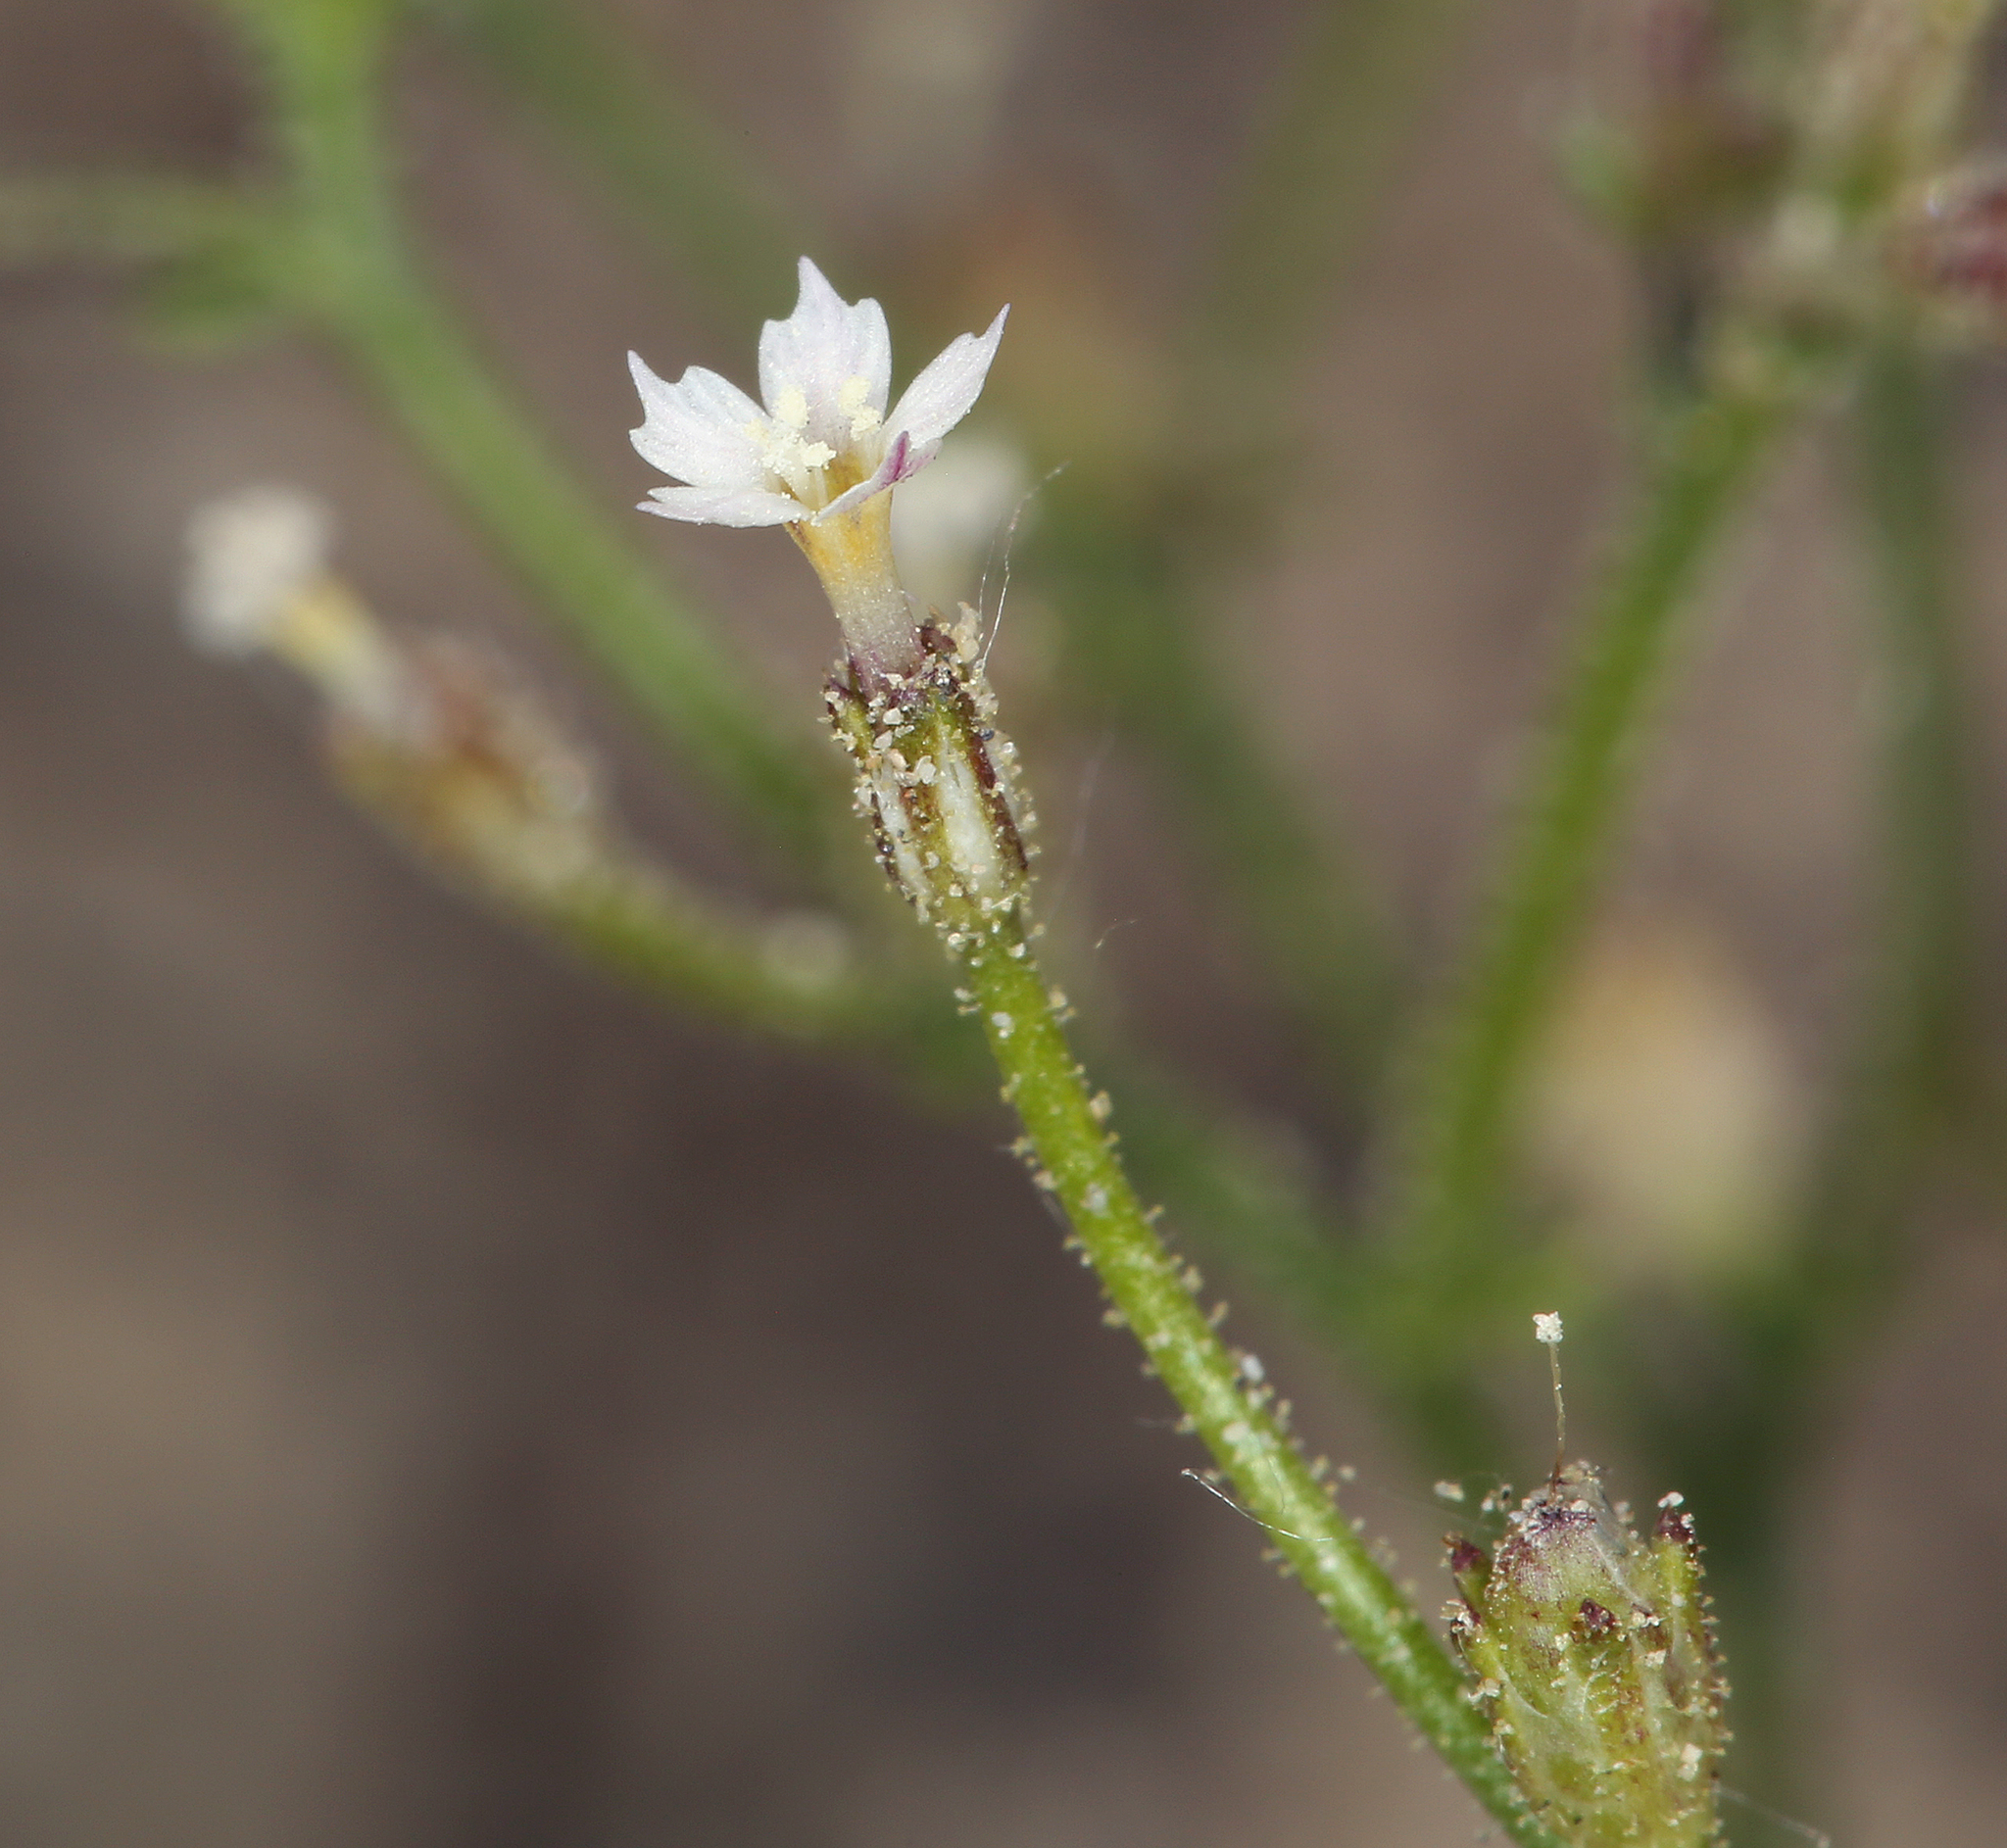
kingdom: Plantae
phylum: Tracheophyta
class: Magnoliopsida
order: Ericales
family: Polemoniaceae
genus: Aliciella
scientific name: Aliciella triodon
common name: Coyote gilia
